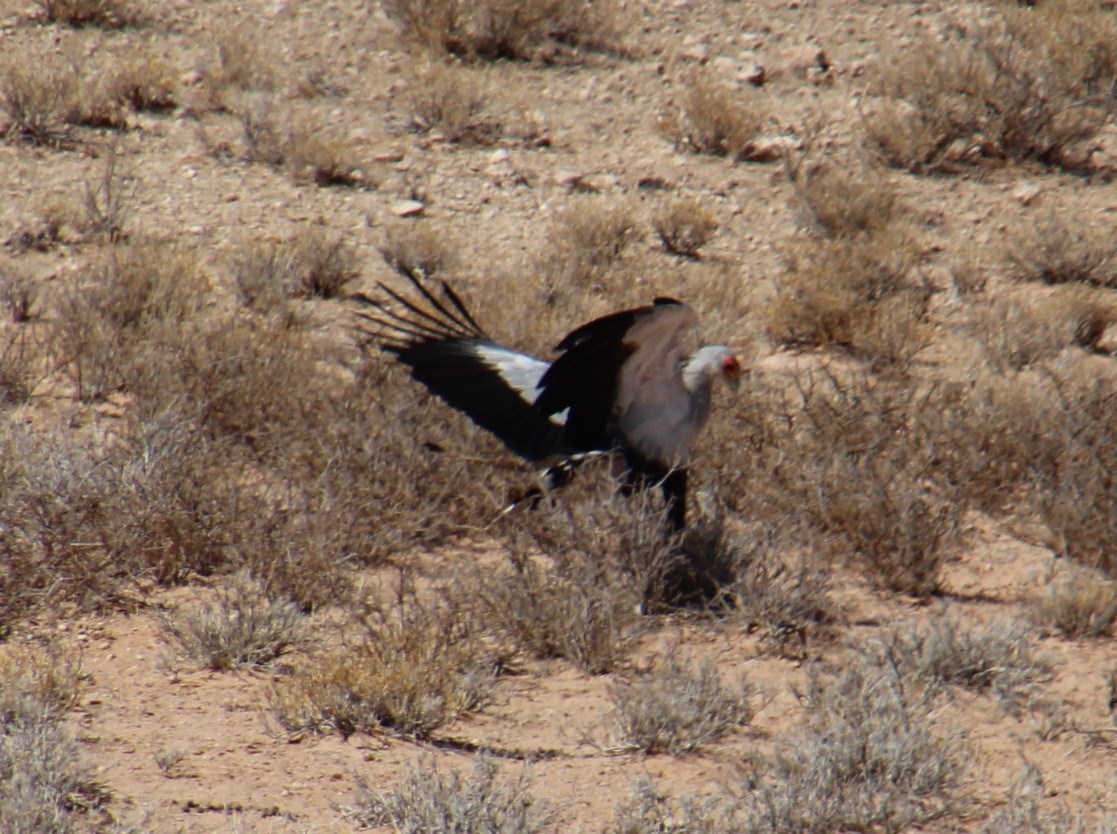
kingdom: Animalia
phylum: Chordata
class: Aves
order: Accipitriformes
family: Sagittariidae
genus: Sagittarius
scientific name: Sagittarius serpentarius
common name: Secretarybird
